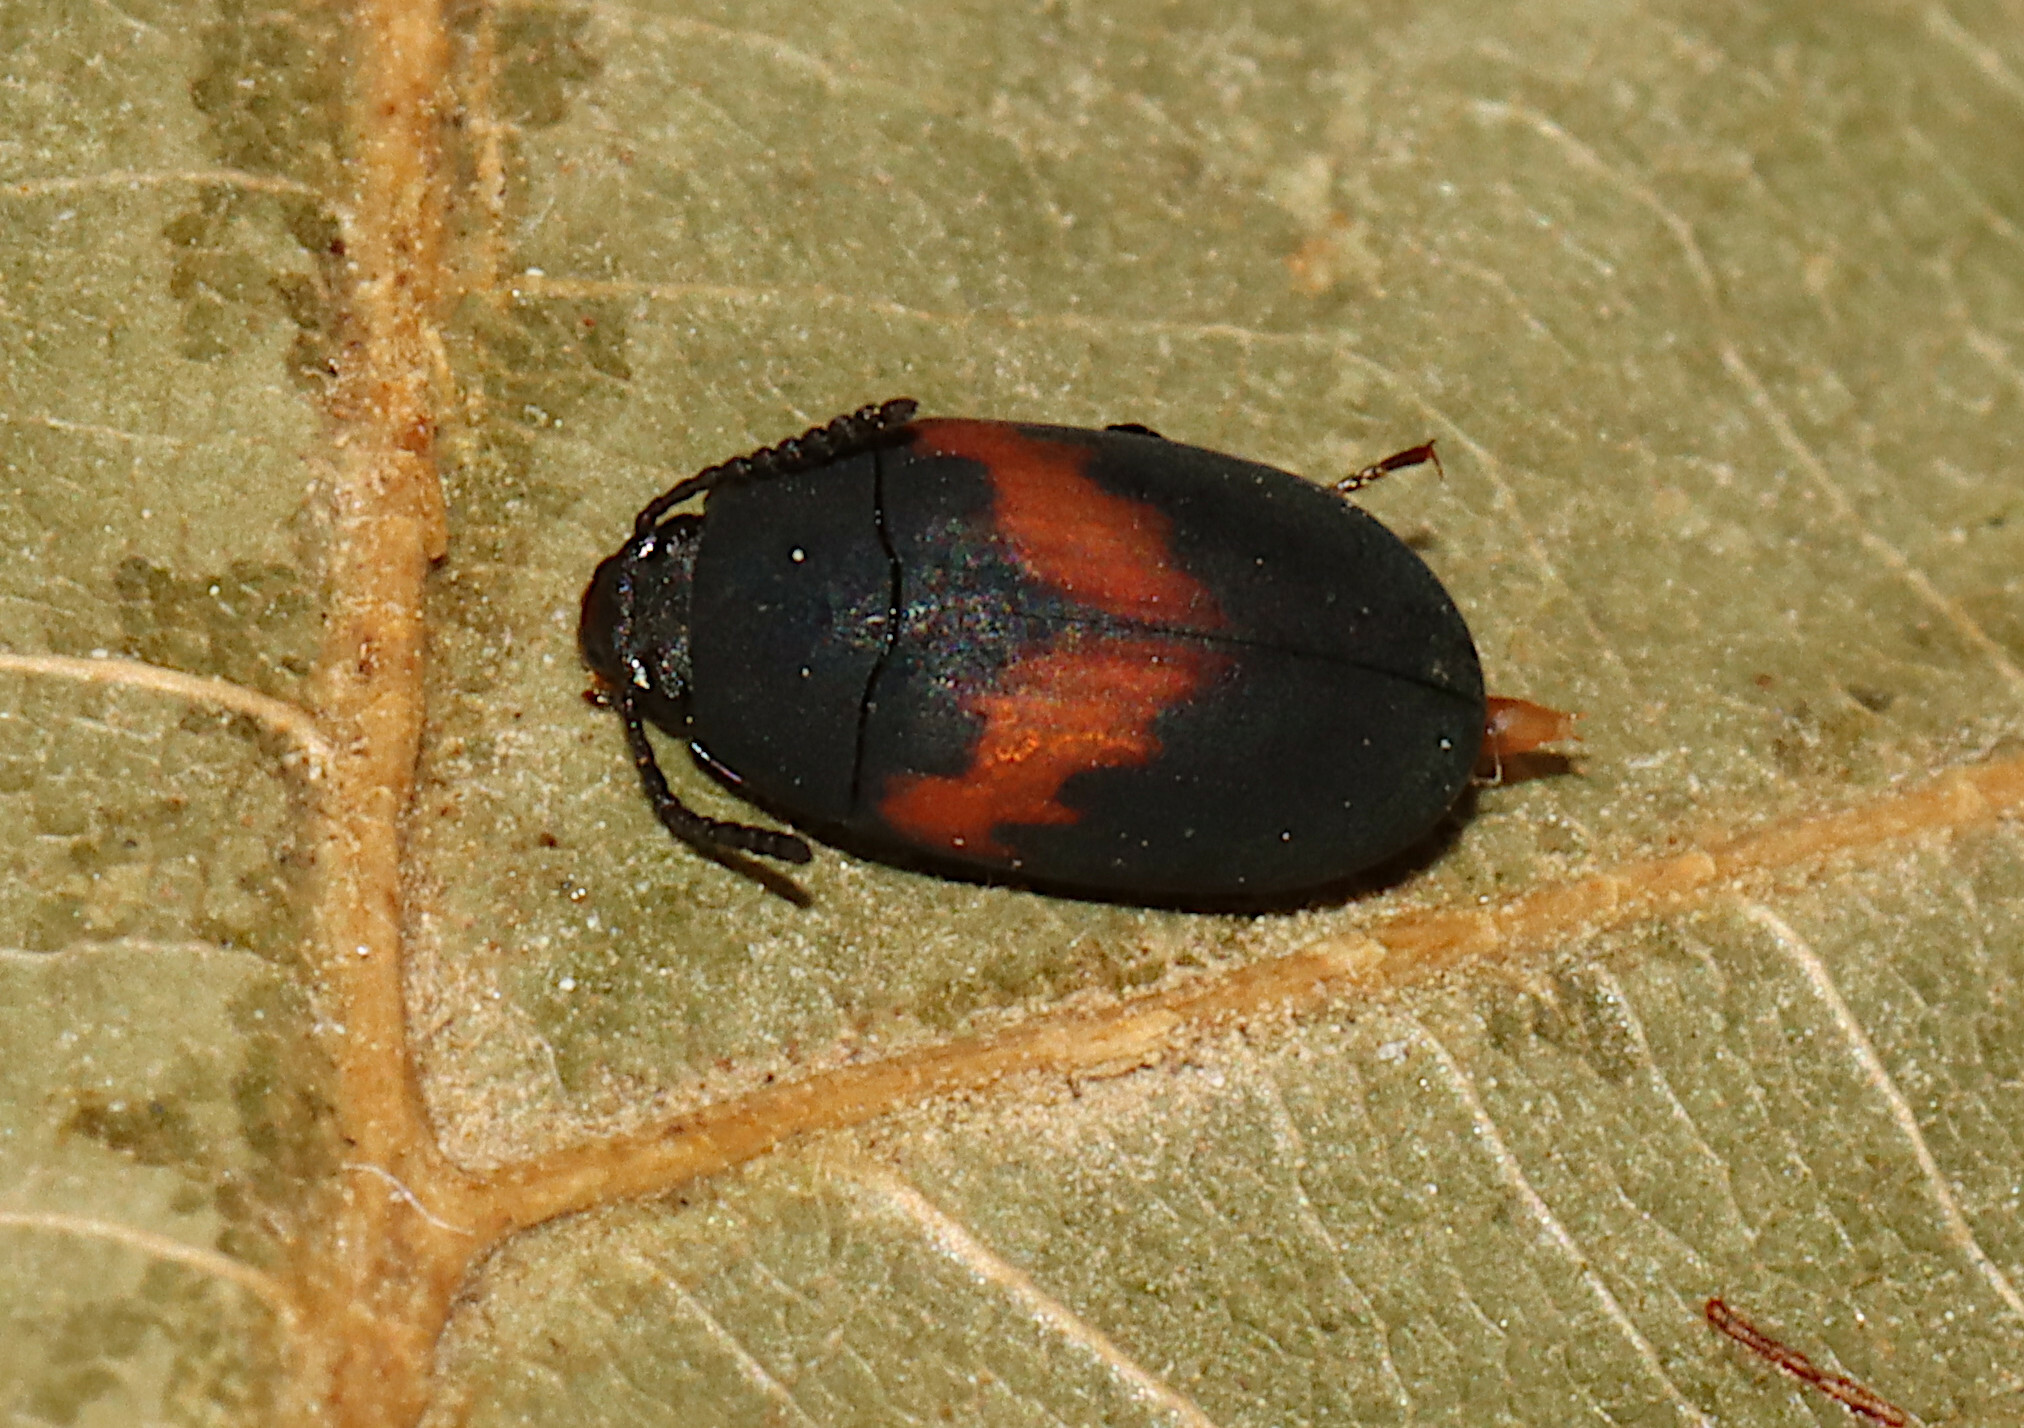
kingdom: Animalia
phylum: Arthropoda
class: Insecta
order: Coleoptera
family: Tenebrionidae
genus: Platydema
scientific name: Platydema elliptica
